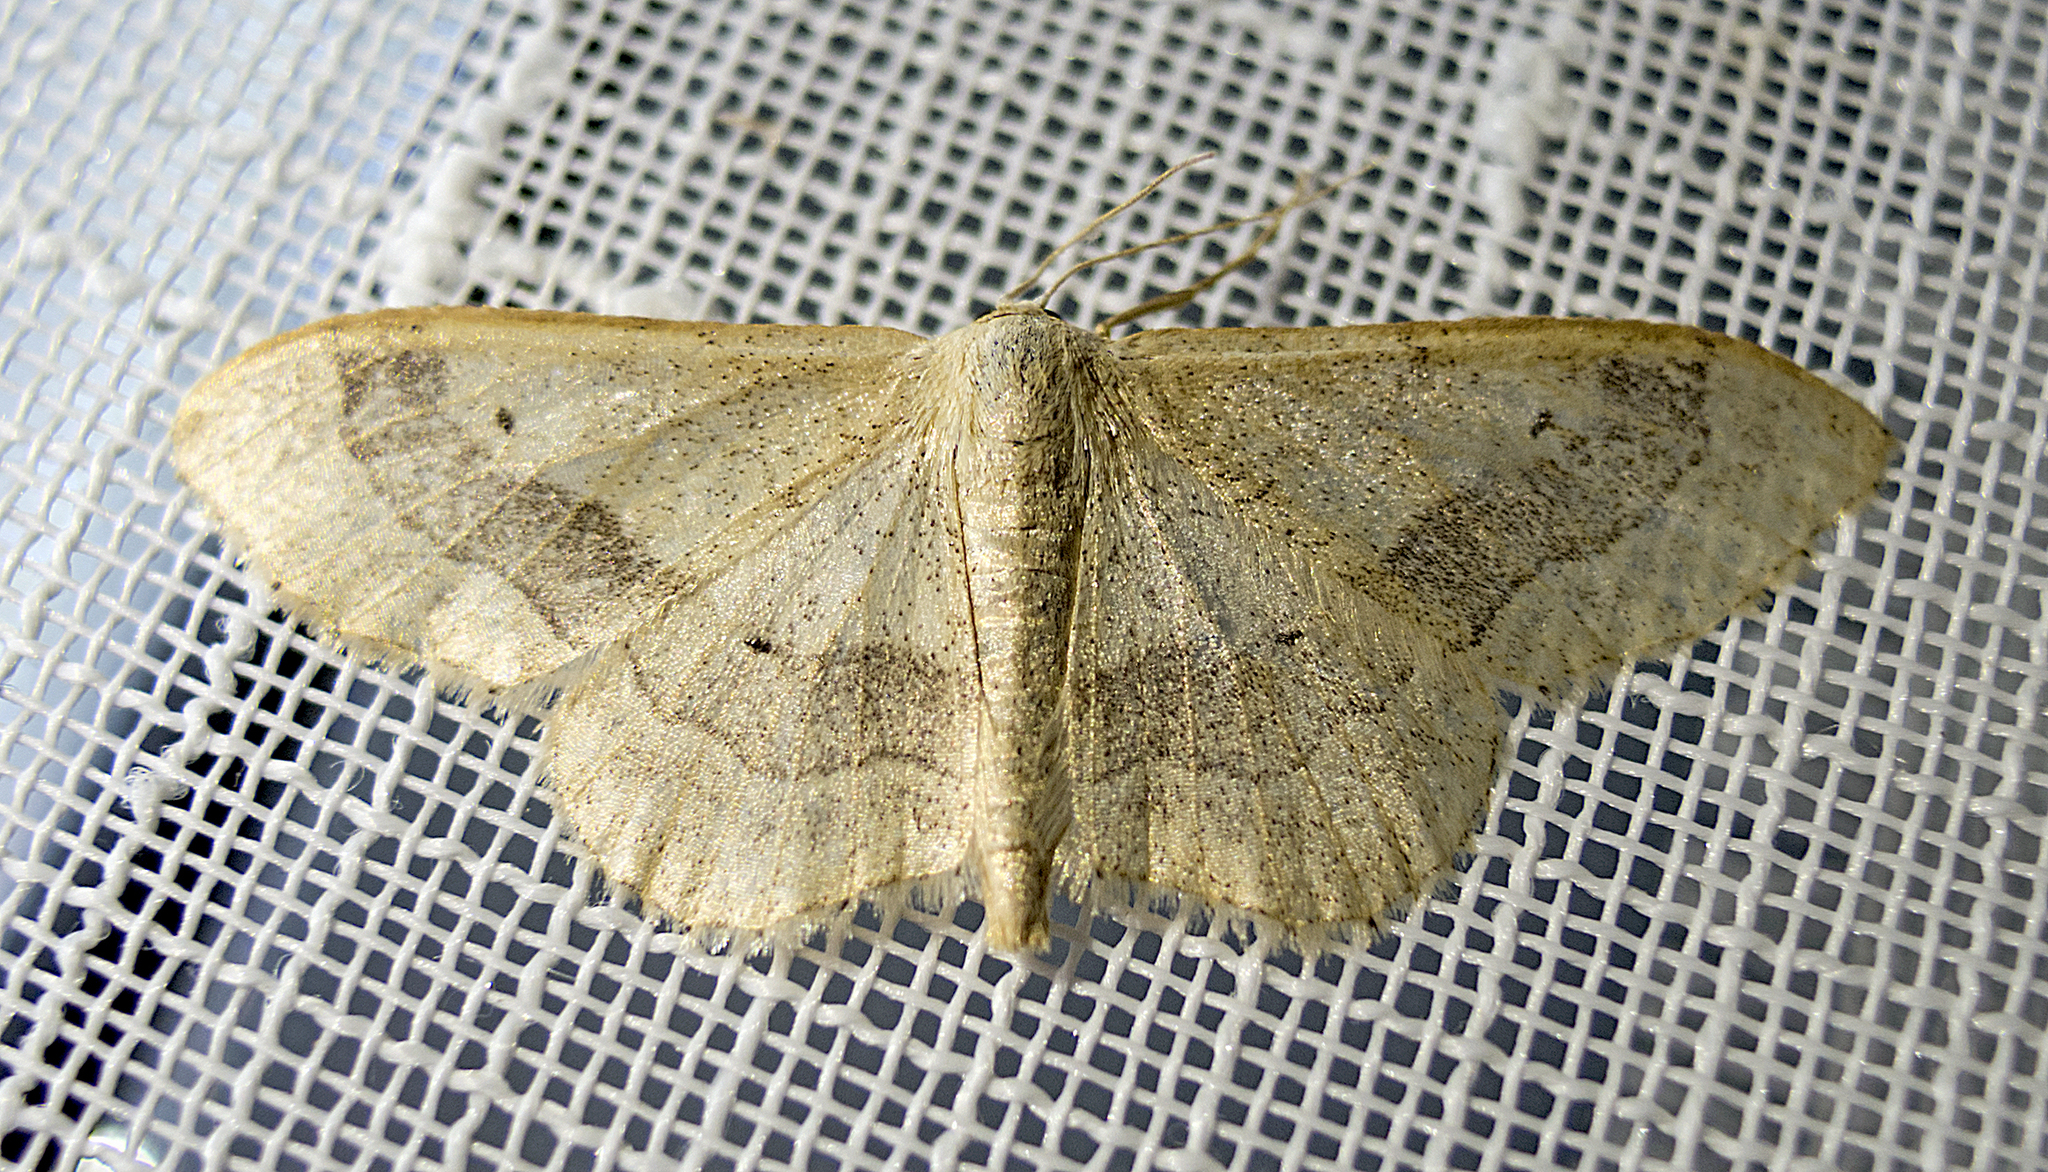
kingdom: Animalia
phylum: Arthropoda
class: Insecta
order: Lepidoptera
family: Geometridae
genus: Idaea
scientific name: Idaea aversata
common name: Riband wave
